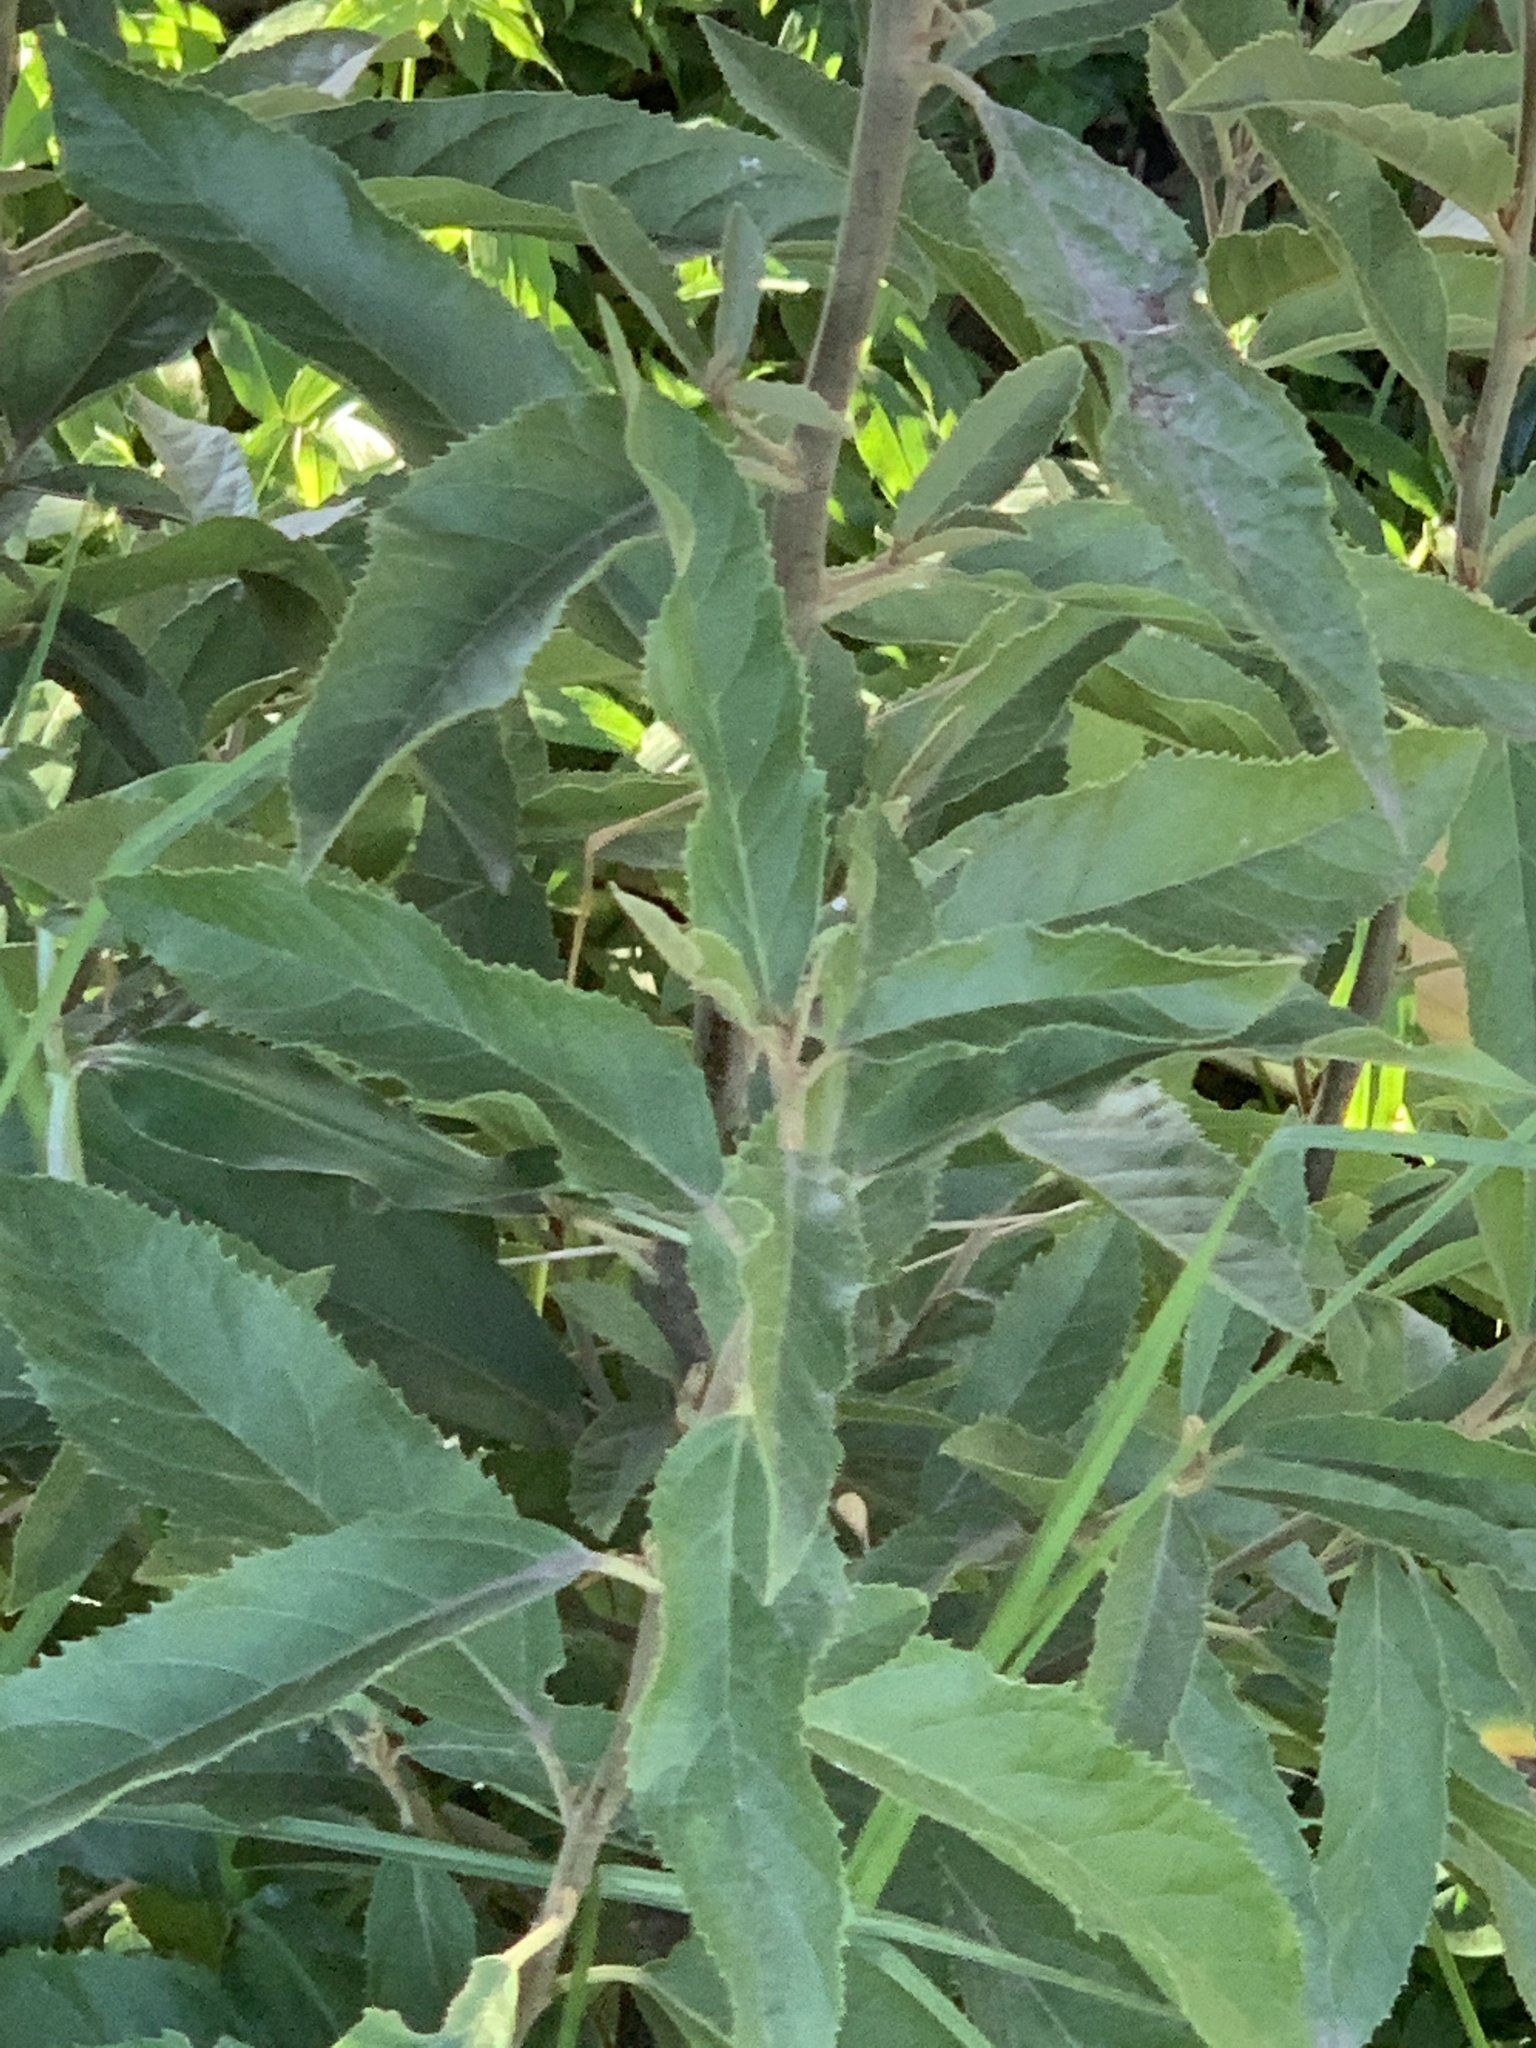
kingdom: Plantae
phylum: Tracheophyta
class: Magnoliopsida
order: Malpighiales
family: Achariaceae
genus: Kiggelaria
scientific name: Kiggelaria africana
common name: Wild peach
